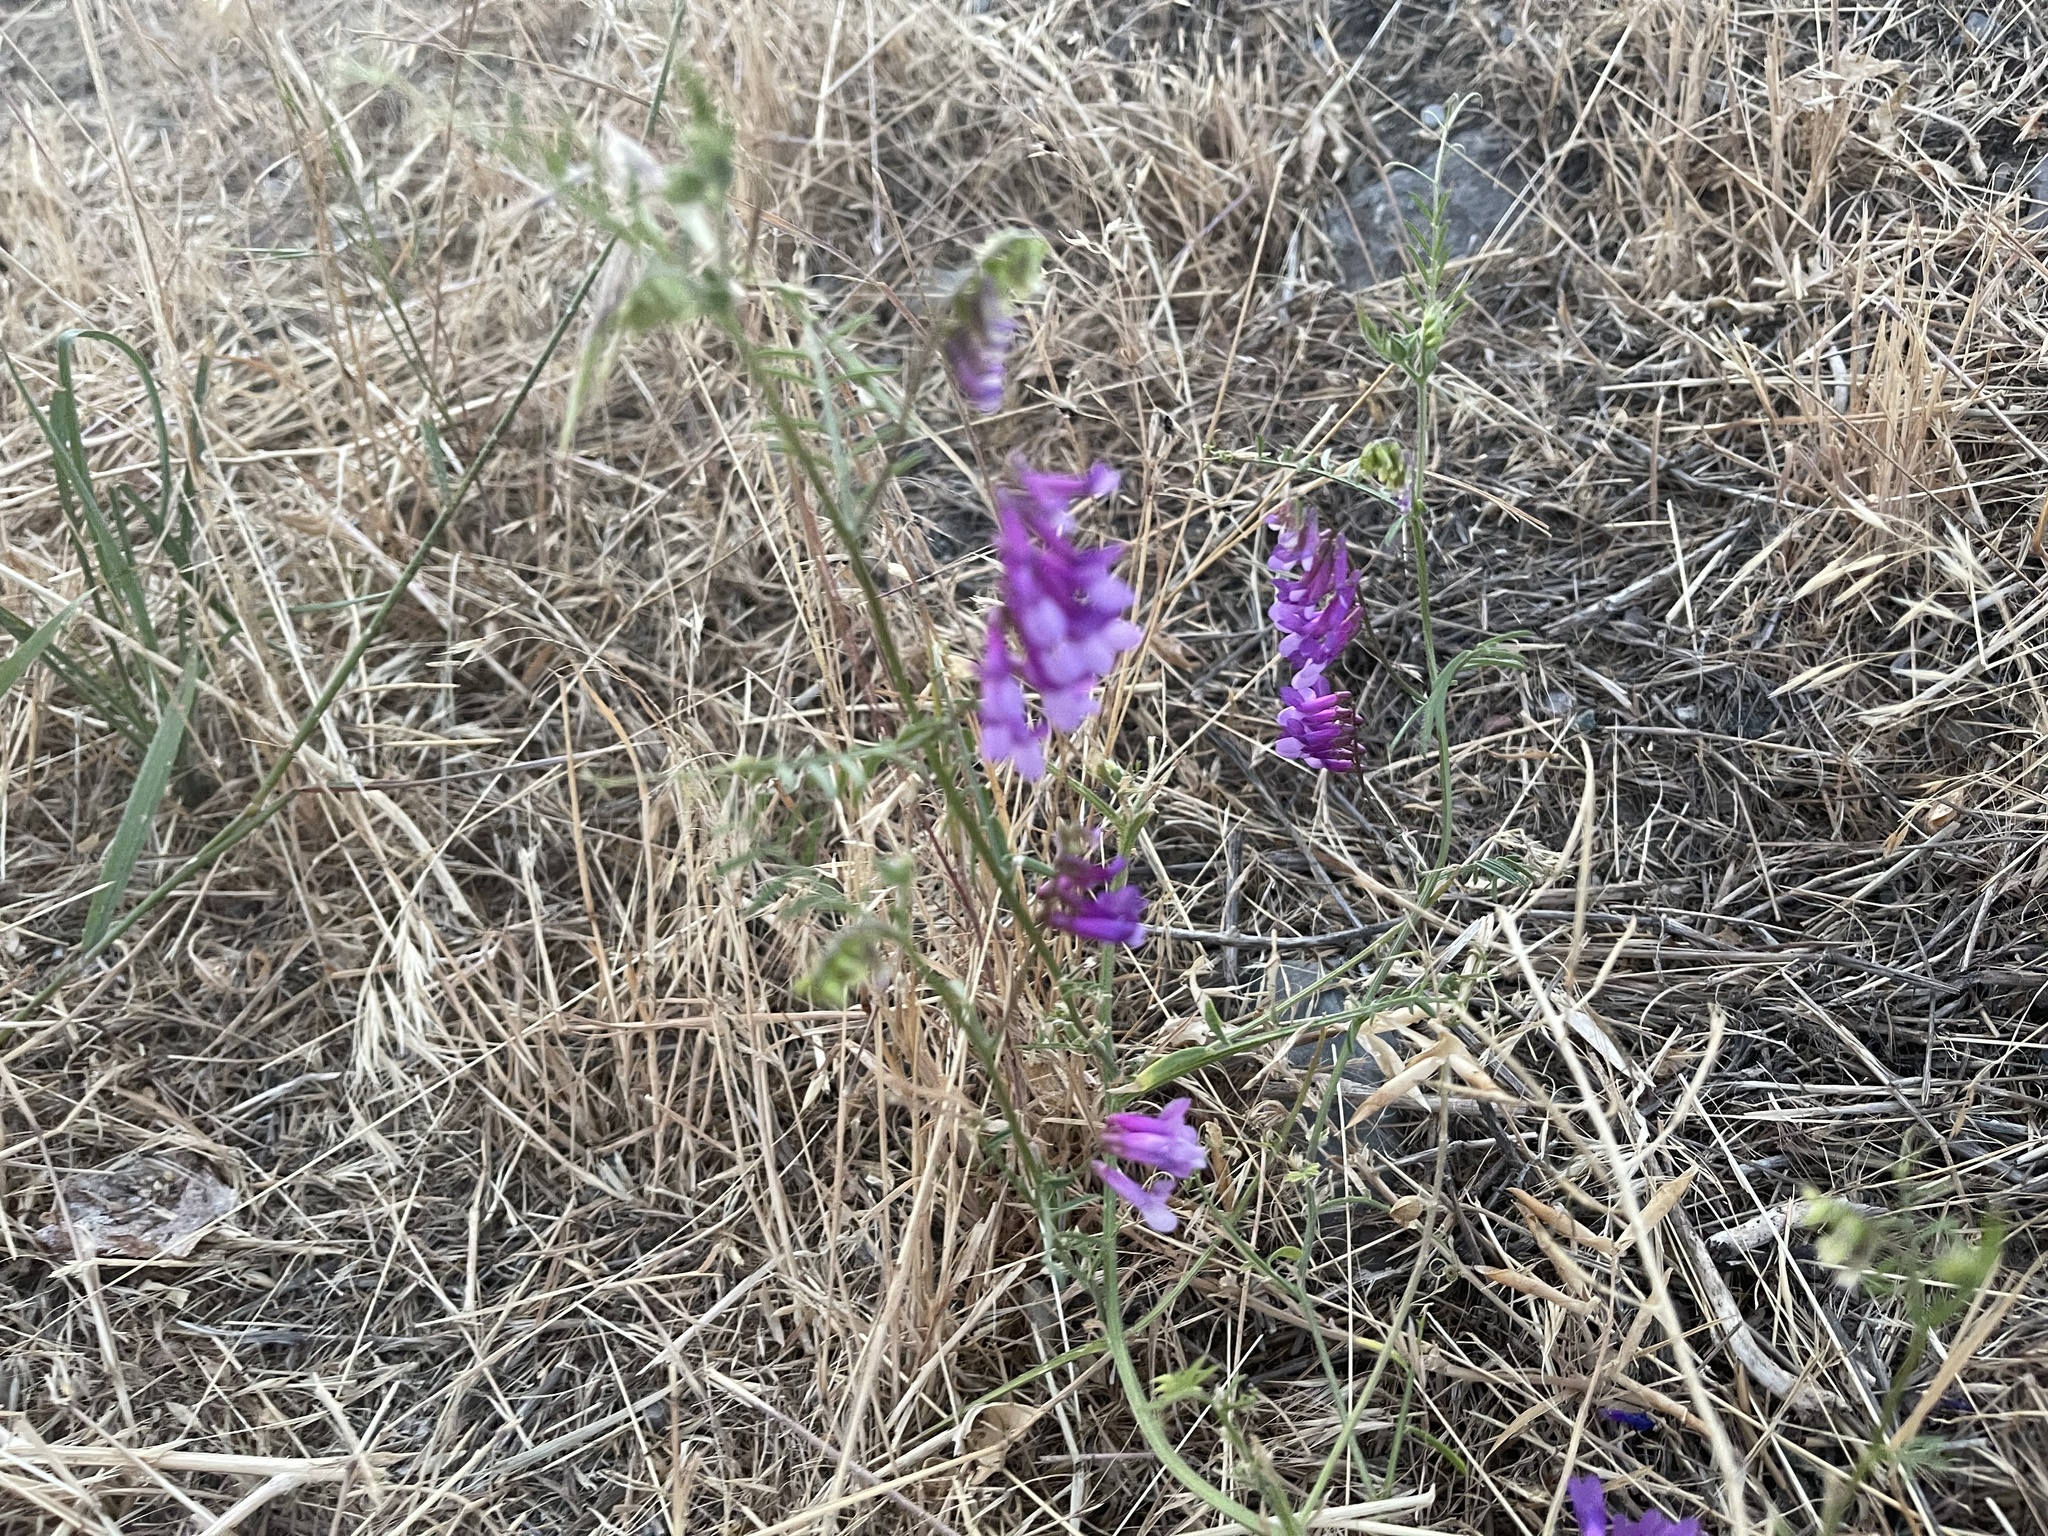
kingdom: Plantae
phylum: Tracheophyta
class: Magnoliopsida
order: Fabales
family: Fabaceae
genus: Vicia
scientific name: Vicia villosa
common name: Fodder vetch
